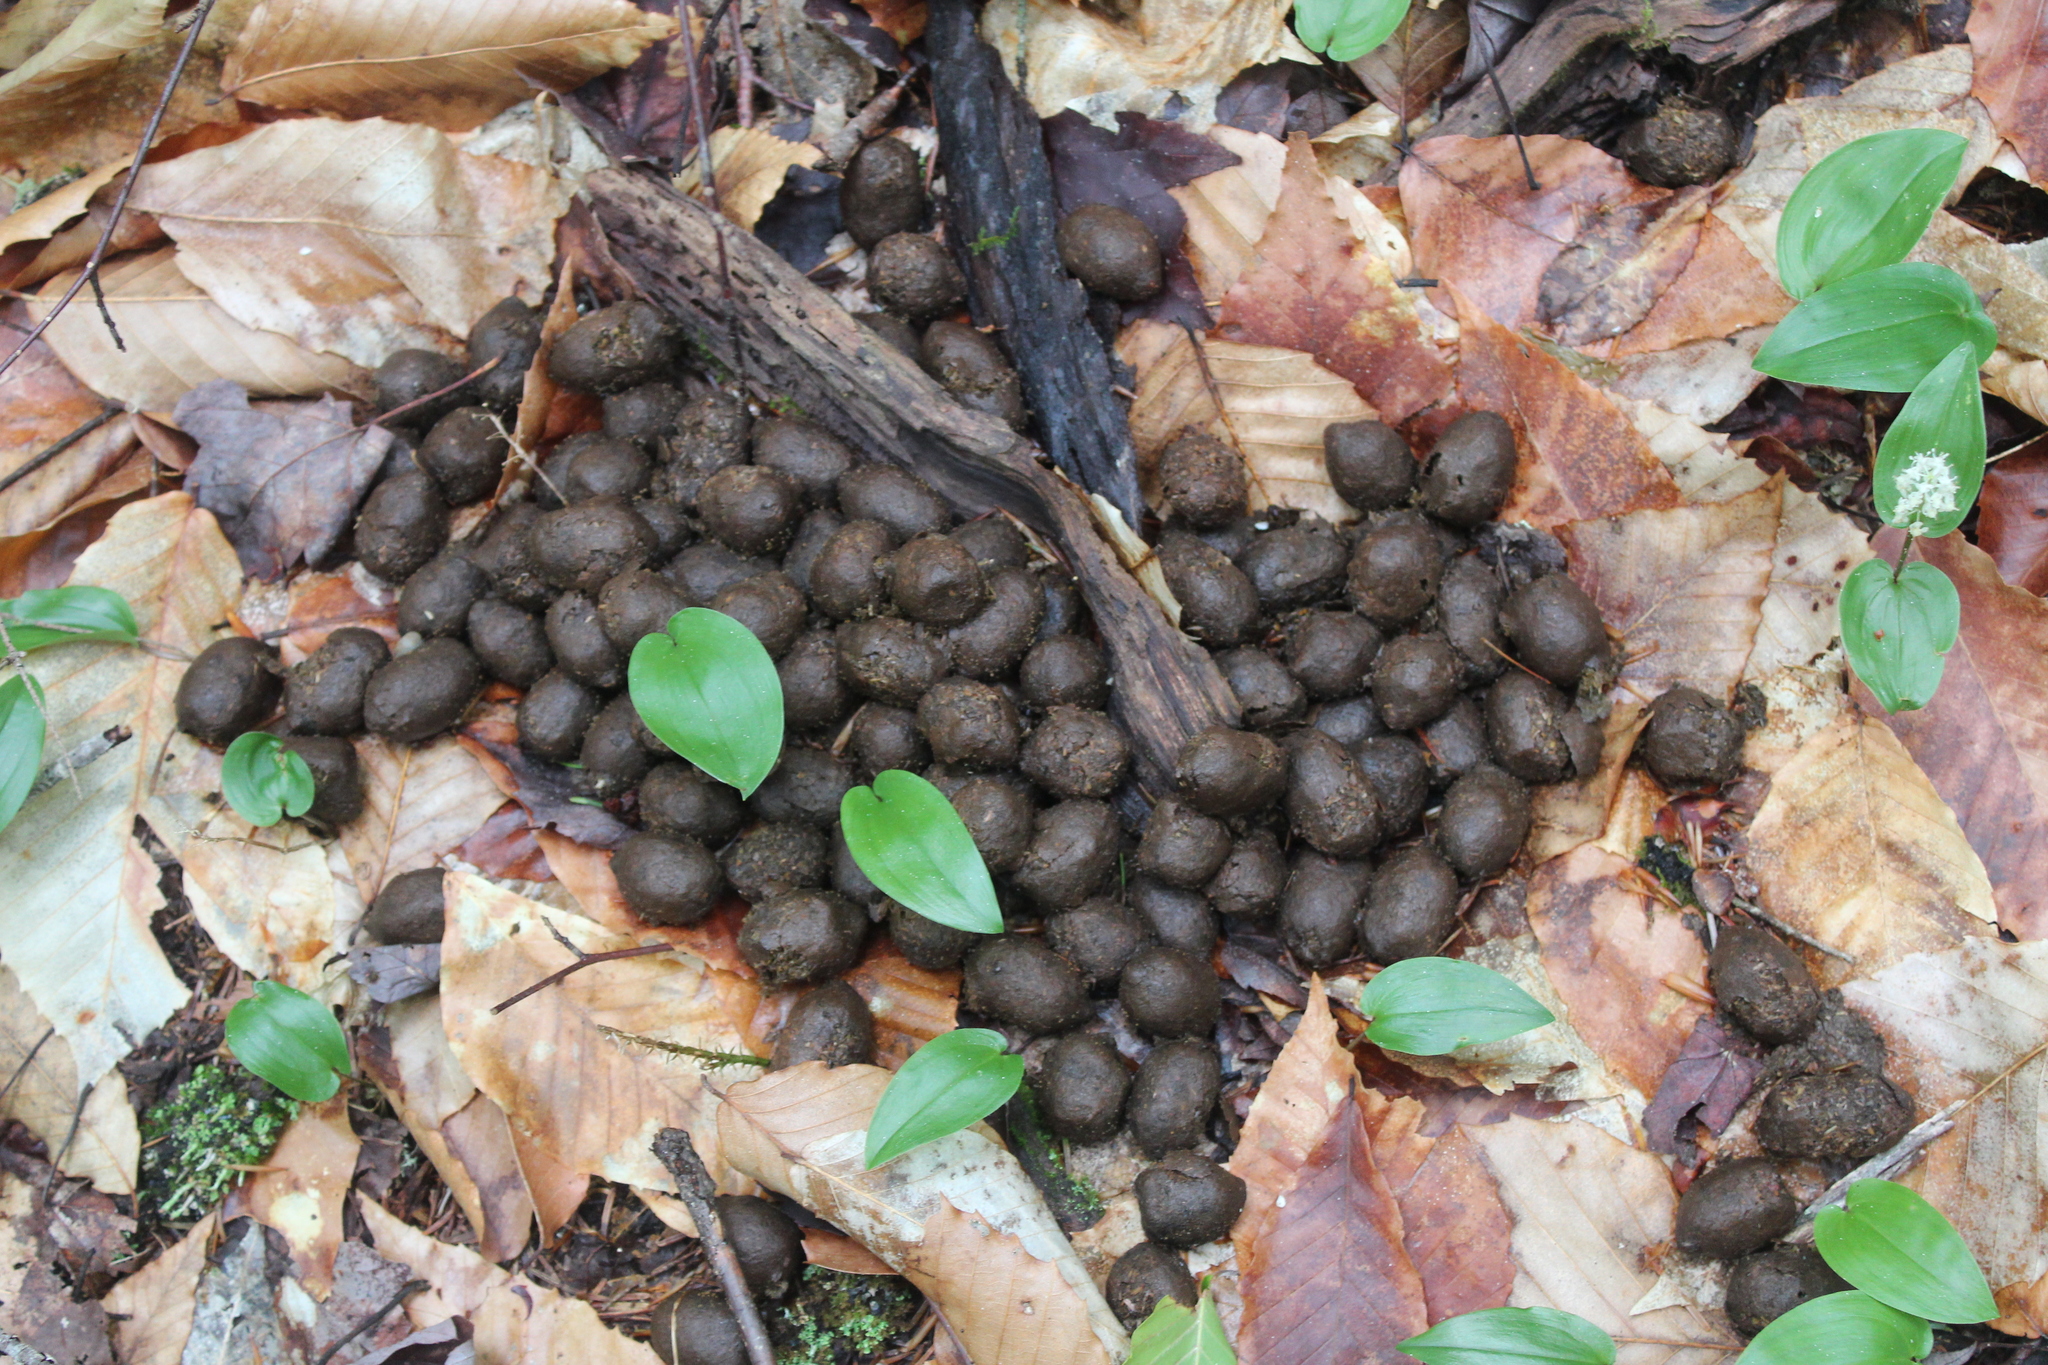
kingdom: Animalia
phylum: Chordata
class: Mammalia
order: Artiodactyla
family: Cervidae
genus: Alces
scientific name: Alces alces
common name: Moose
